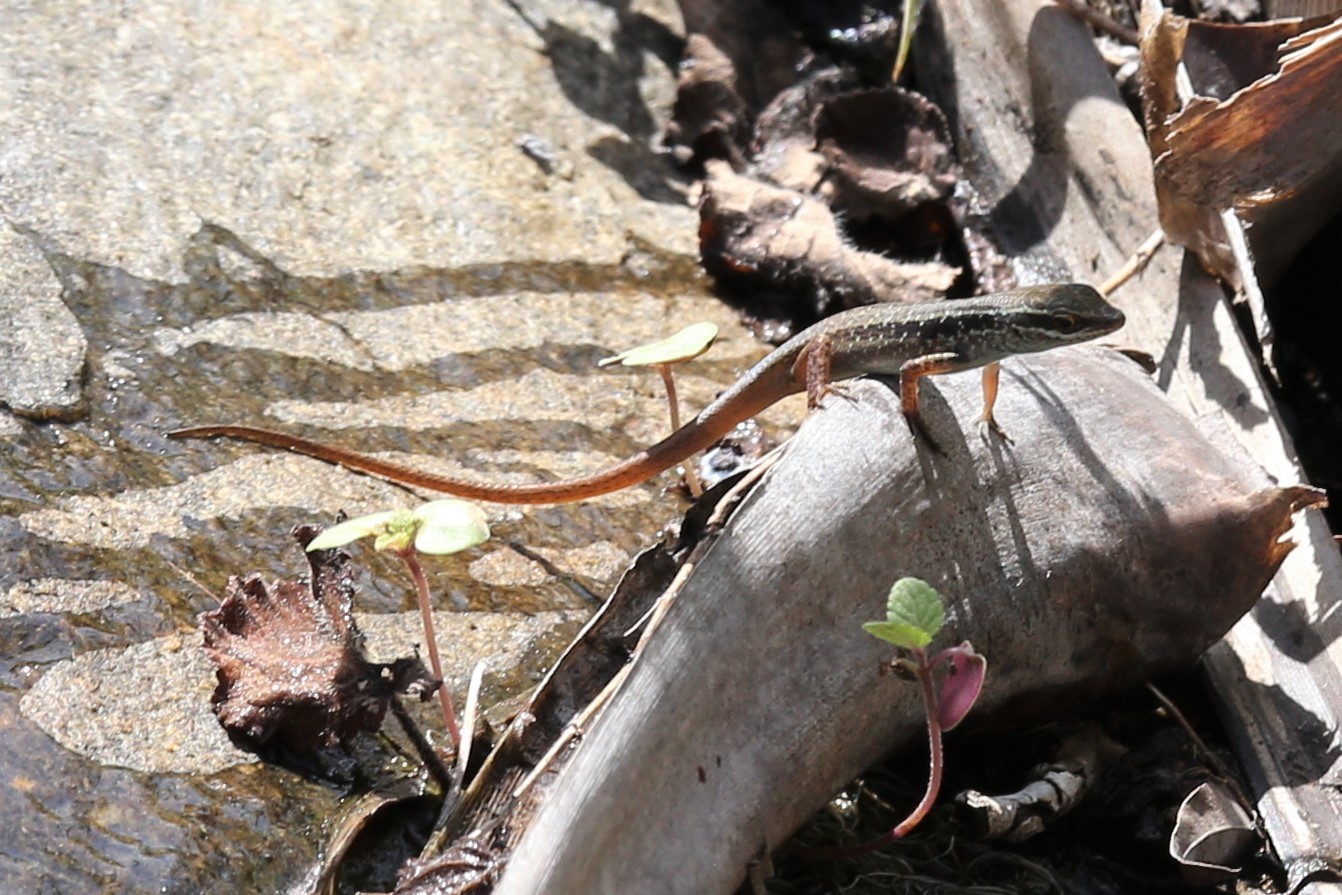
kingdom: Animalia
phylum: Chordata
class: Squamata
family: Scincidae
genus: Carlia
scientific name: Carlia longipes
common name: Closed-litter rainbow-skink
